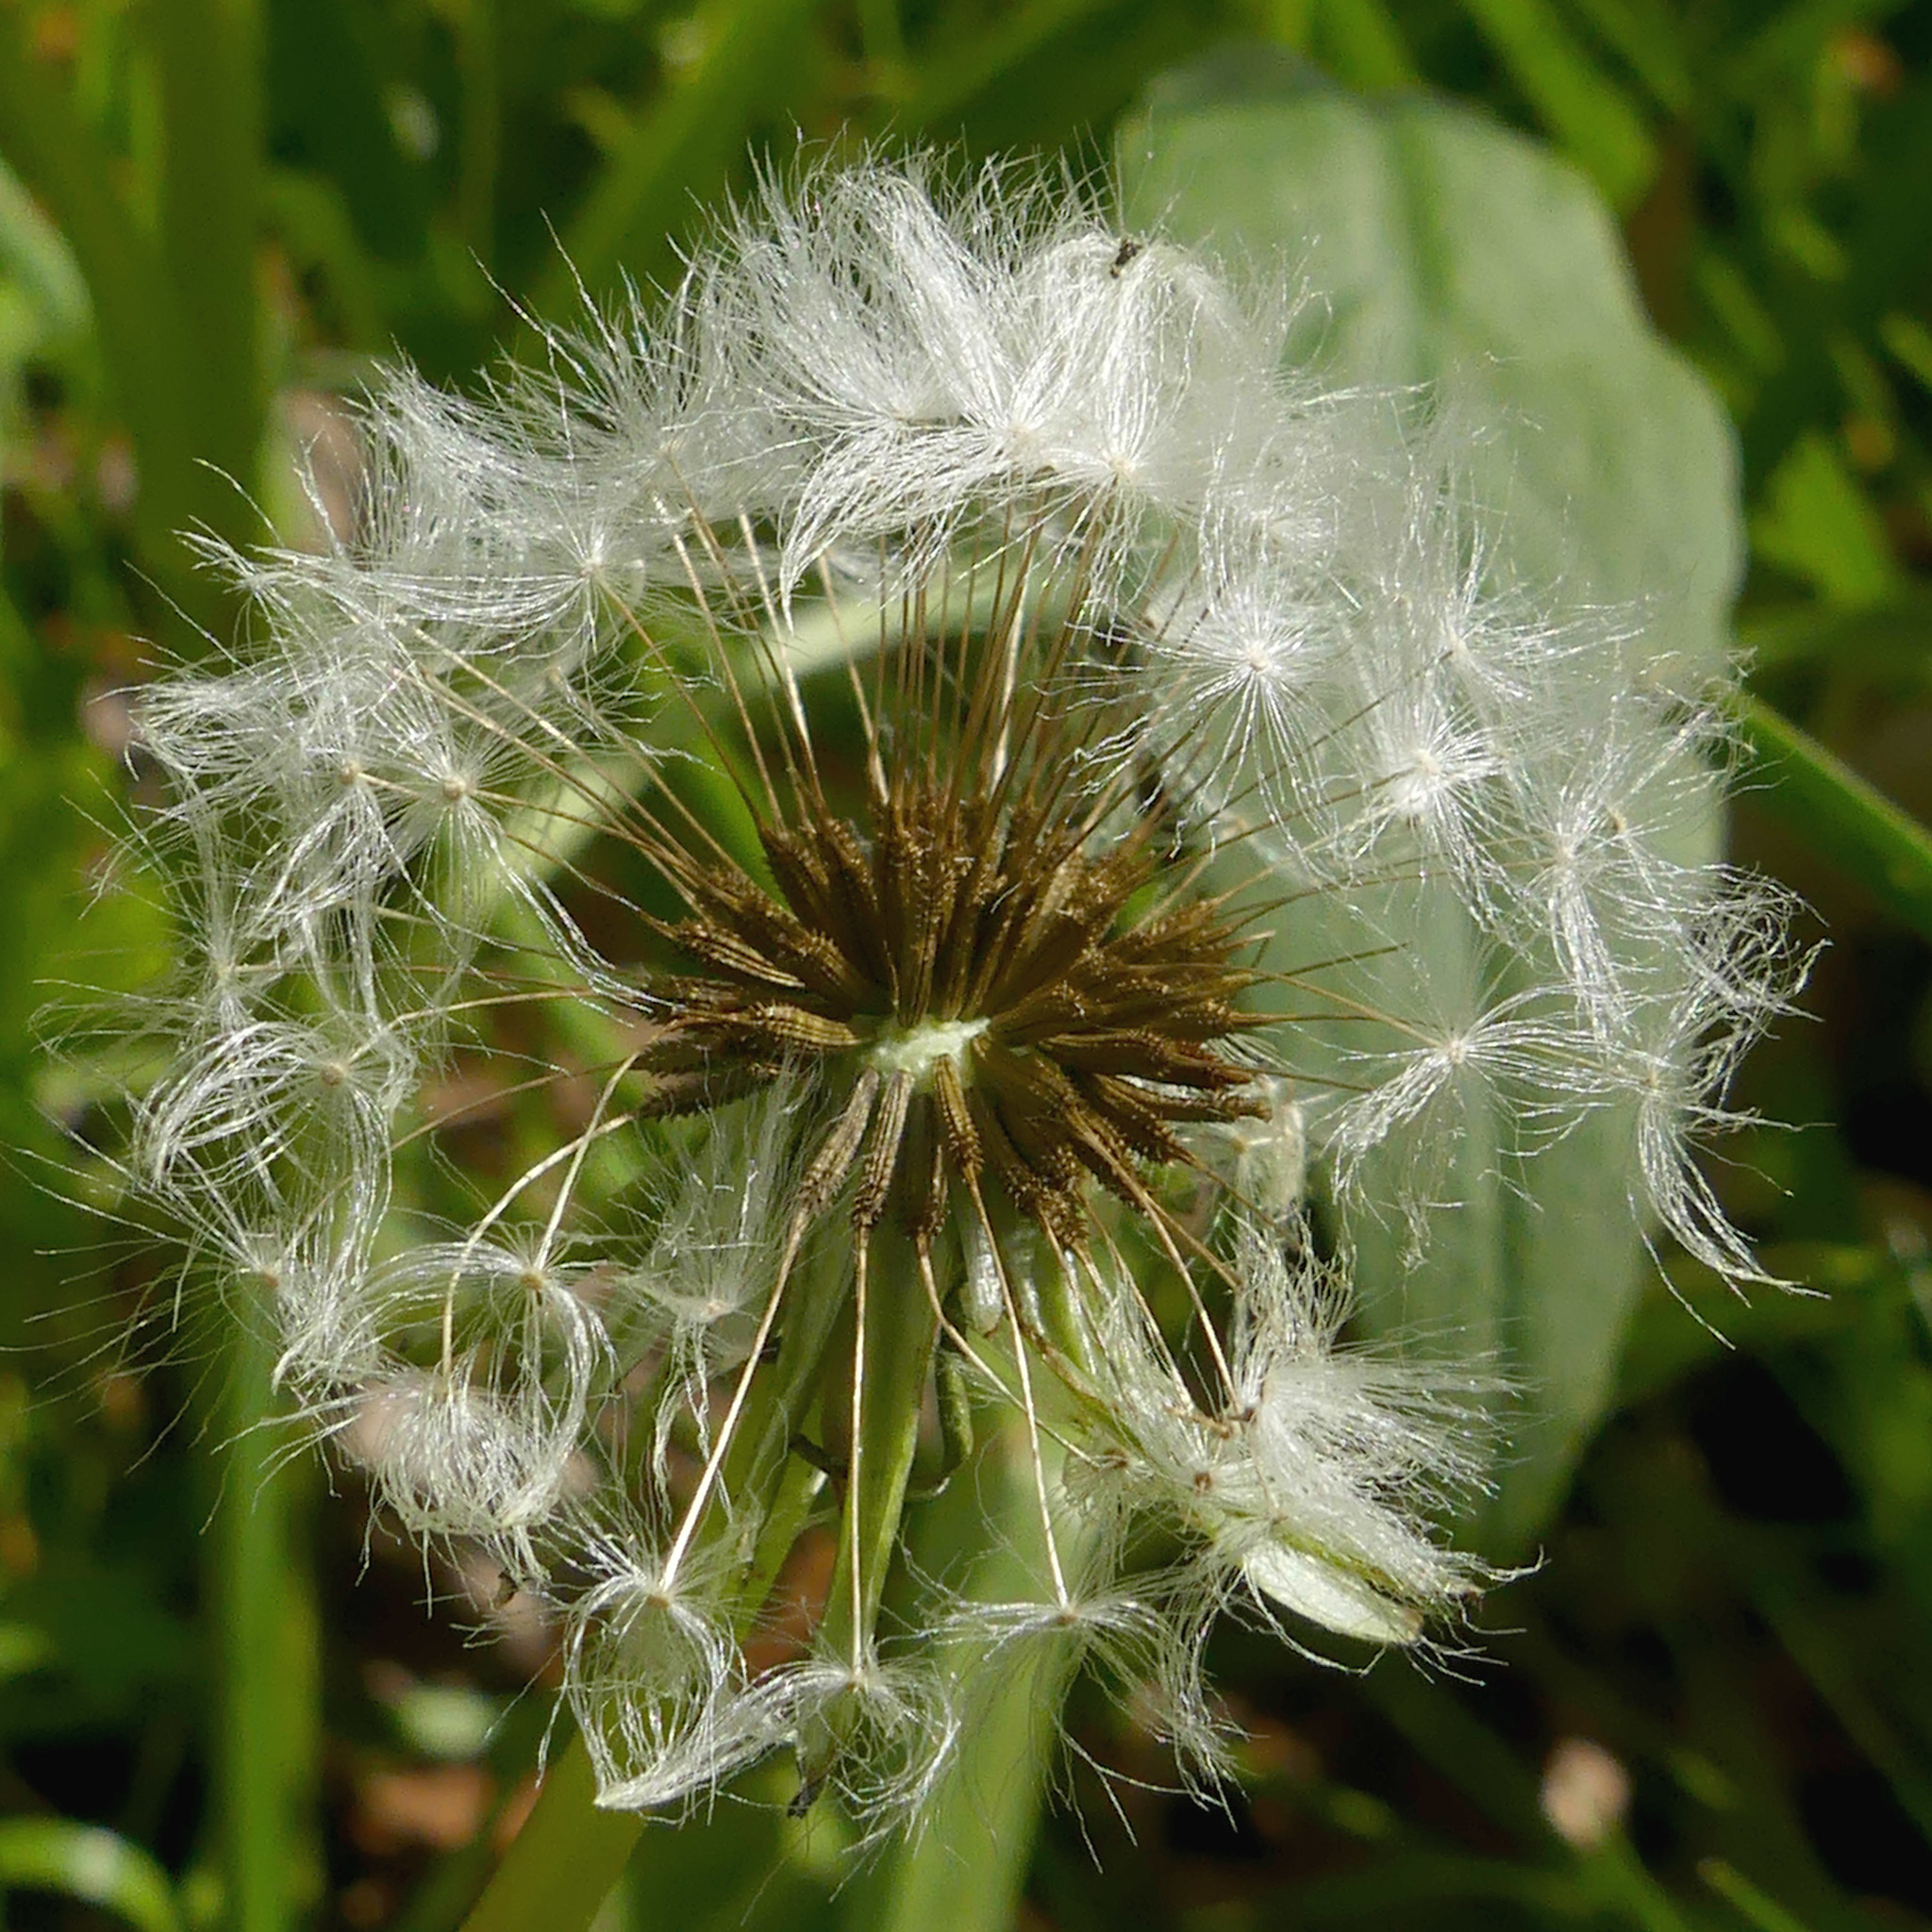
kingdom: Plantae
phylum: Tracheophyta
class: Magnoliopsida
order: Asterales
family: Asteraceae
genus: Taraxacum
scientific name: Taraxacum officinale
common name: Common dandelion
